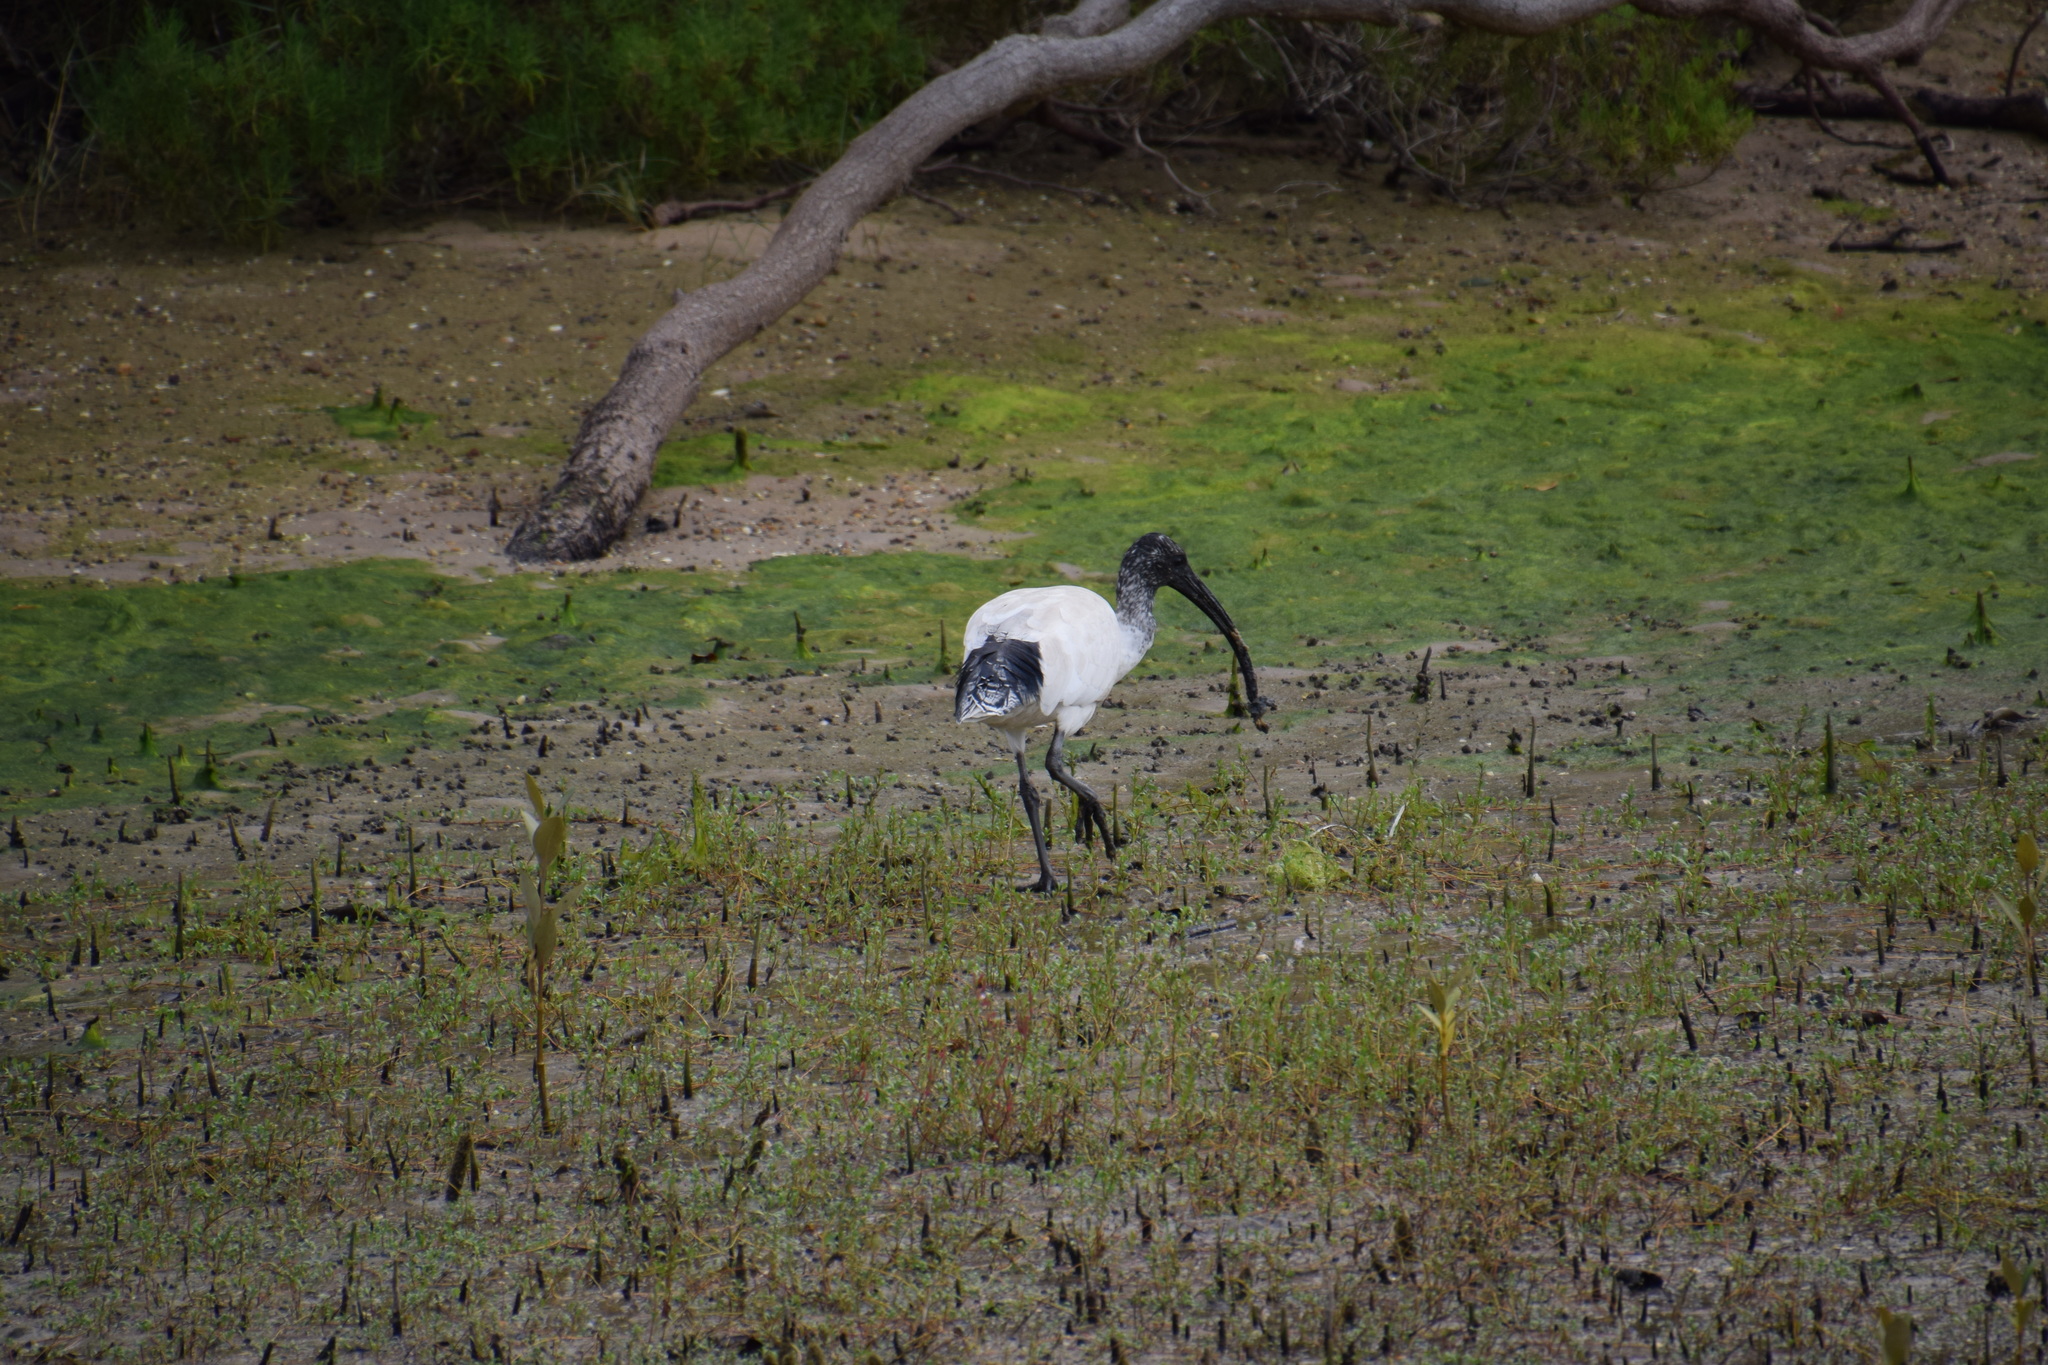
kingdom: Animalia
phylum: Chordata
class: Aves
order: Pelecaniformes
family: Threskiornithidae
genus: Threskiornis
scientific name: Threskiornis molucca
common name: Australian white ibis
